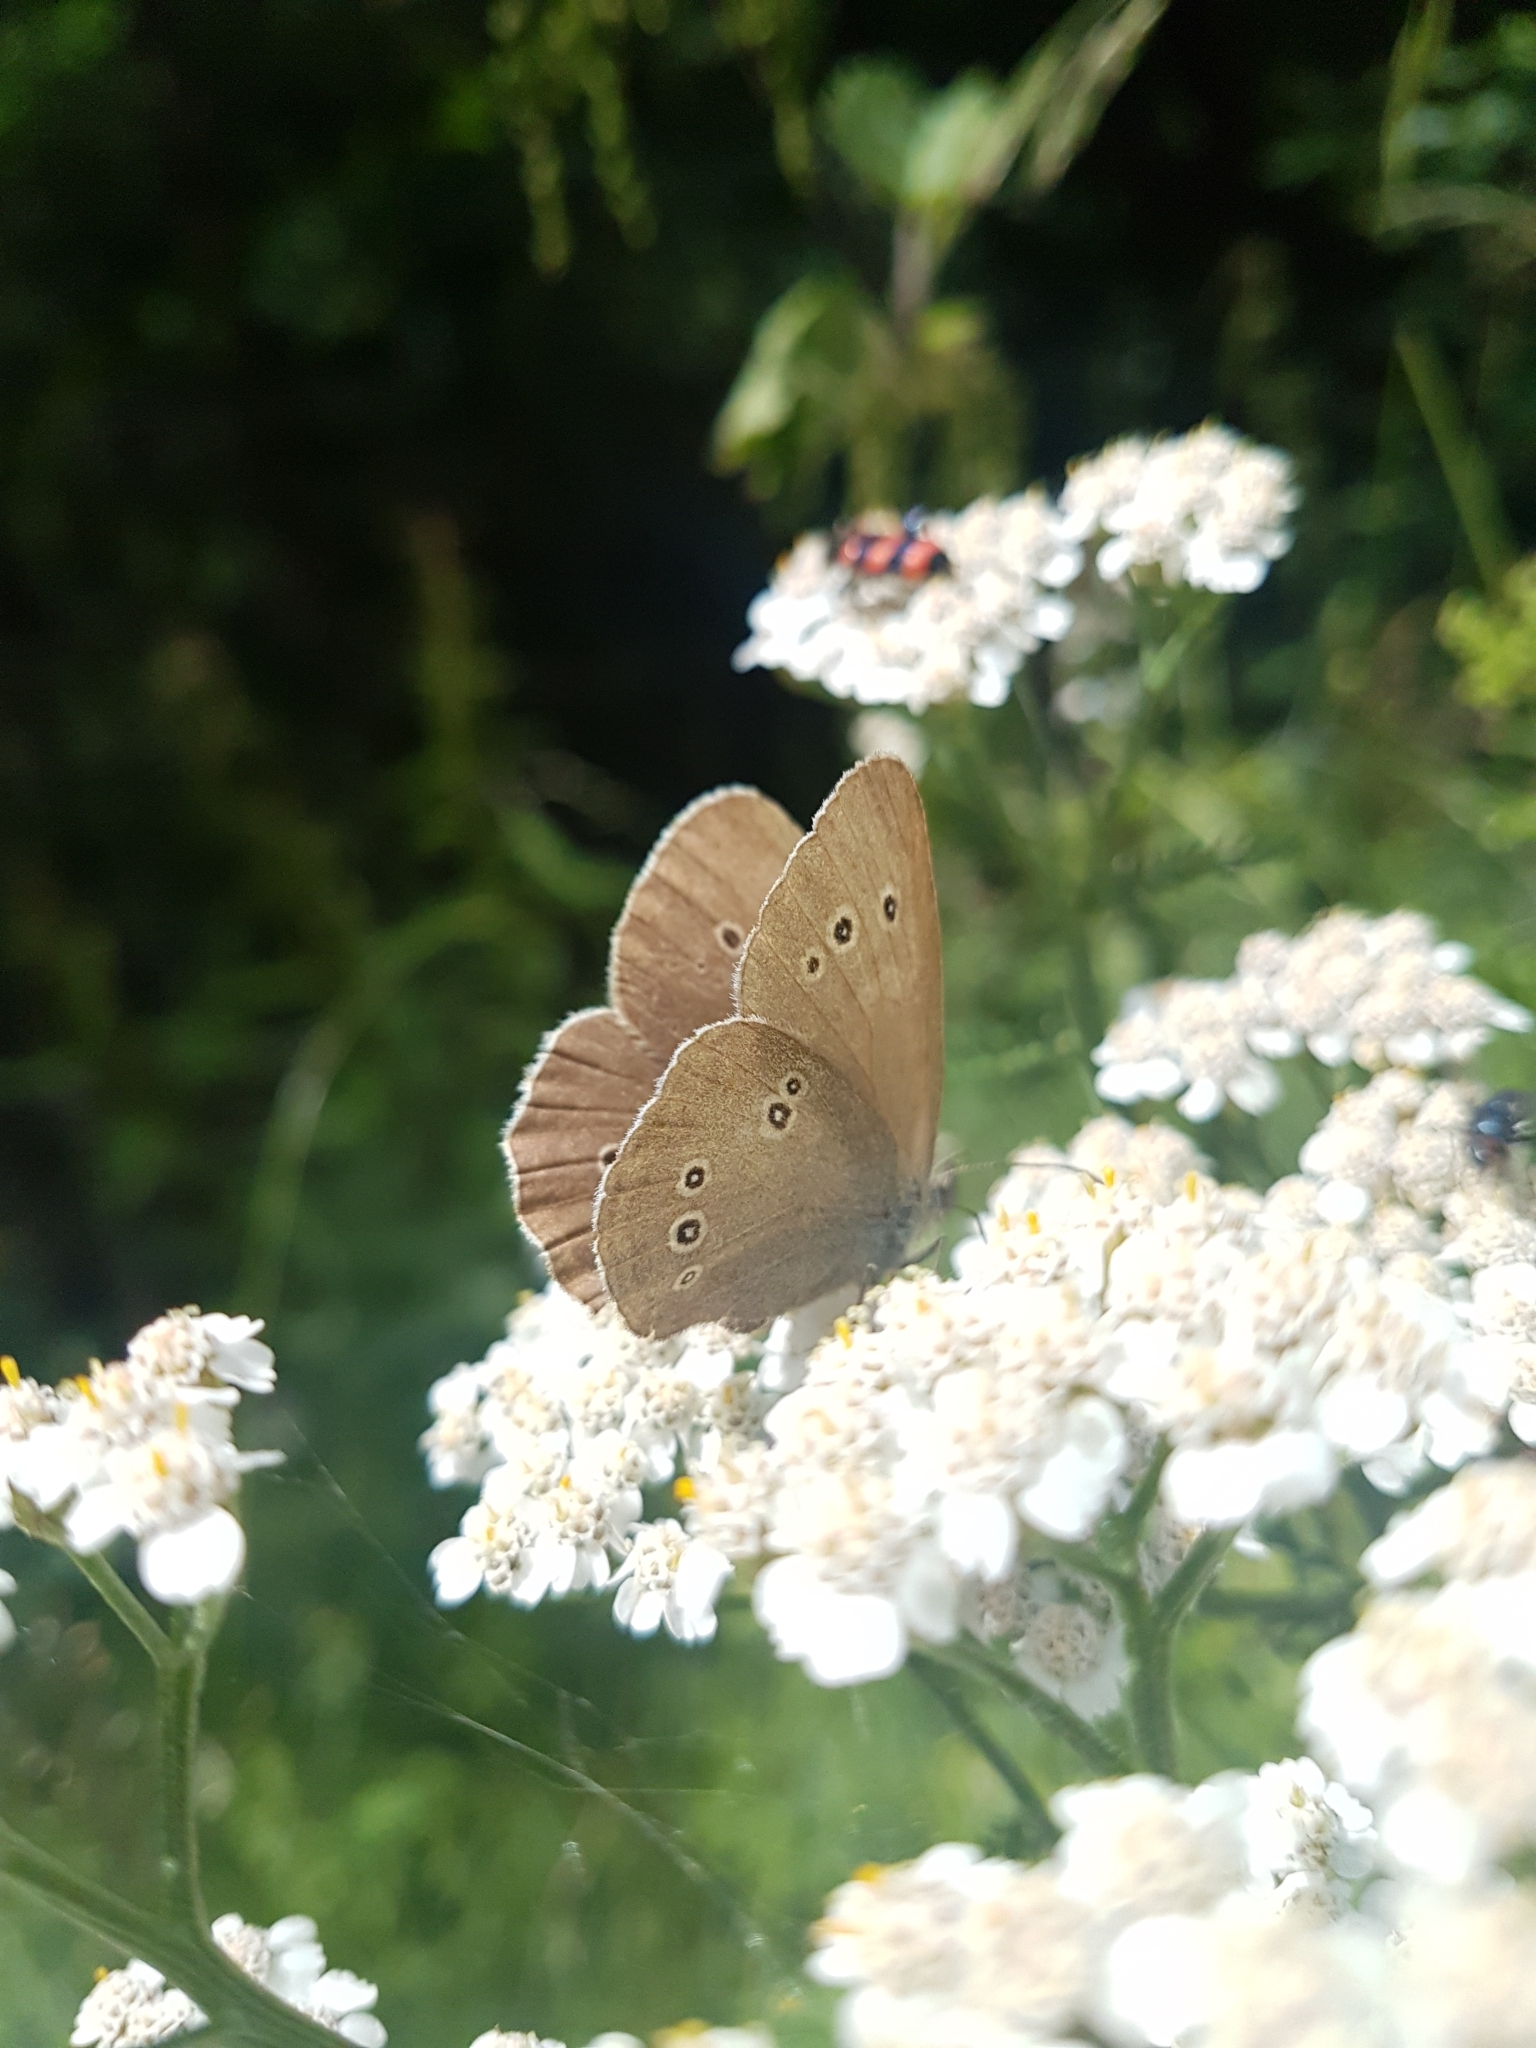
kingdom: Animalia
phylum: Arthropoda
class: Insecta
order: Lepidoptera
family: Nymphalidae
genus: Aphantopus
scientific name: Aphantopus hyperantus
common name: Ringlet
